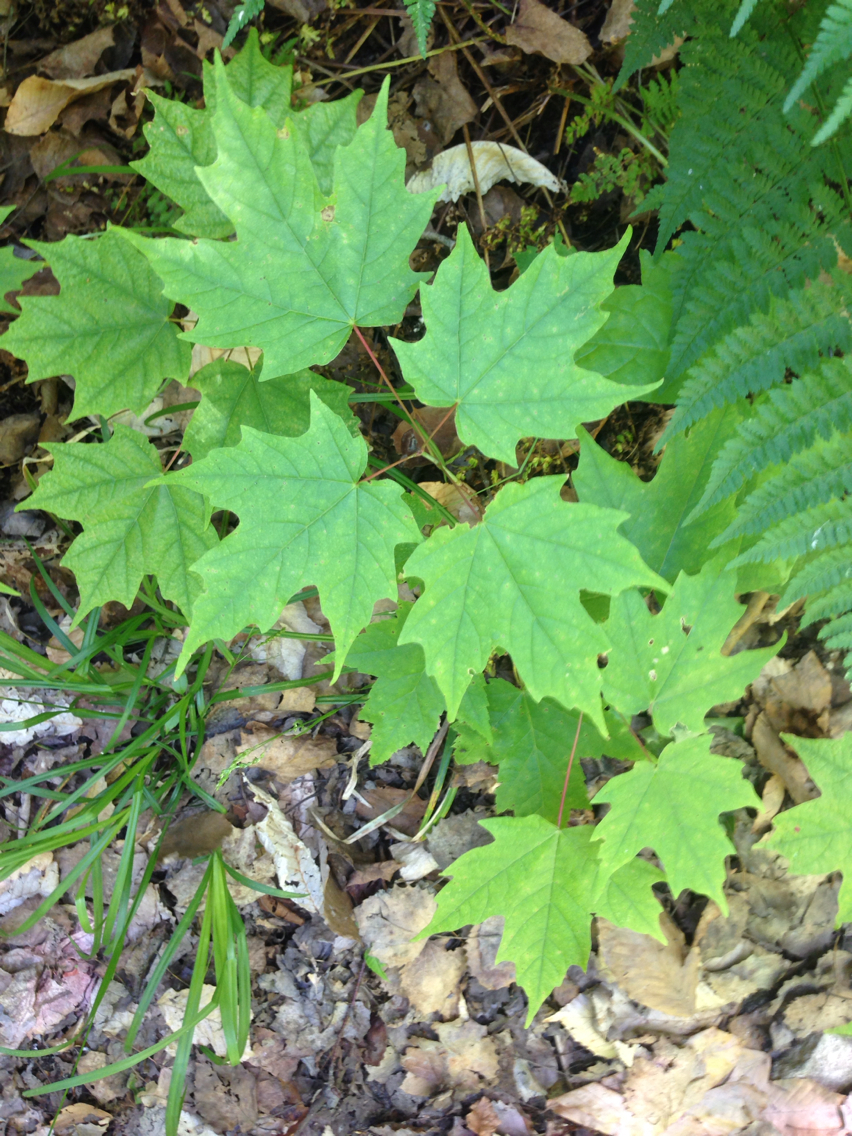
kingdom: Plantae
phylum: Tracheophyta
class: Magnoliopsida
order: Sapindales
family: Sapindaceae
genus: Acer
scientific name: Acer saccharum
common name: Sugar maple
